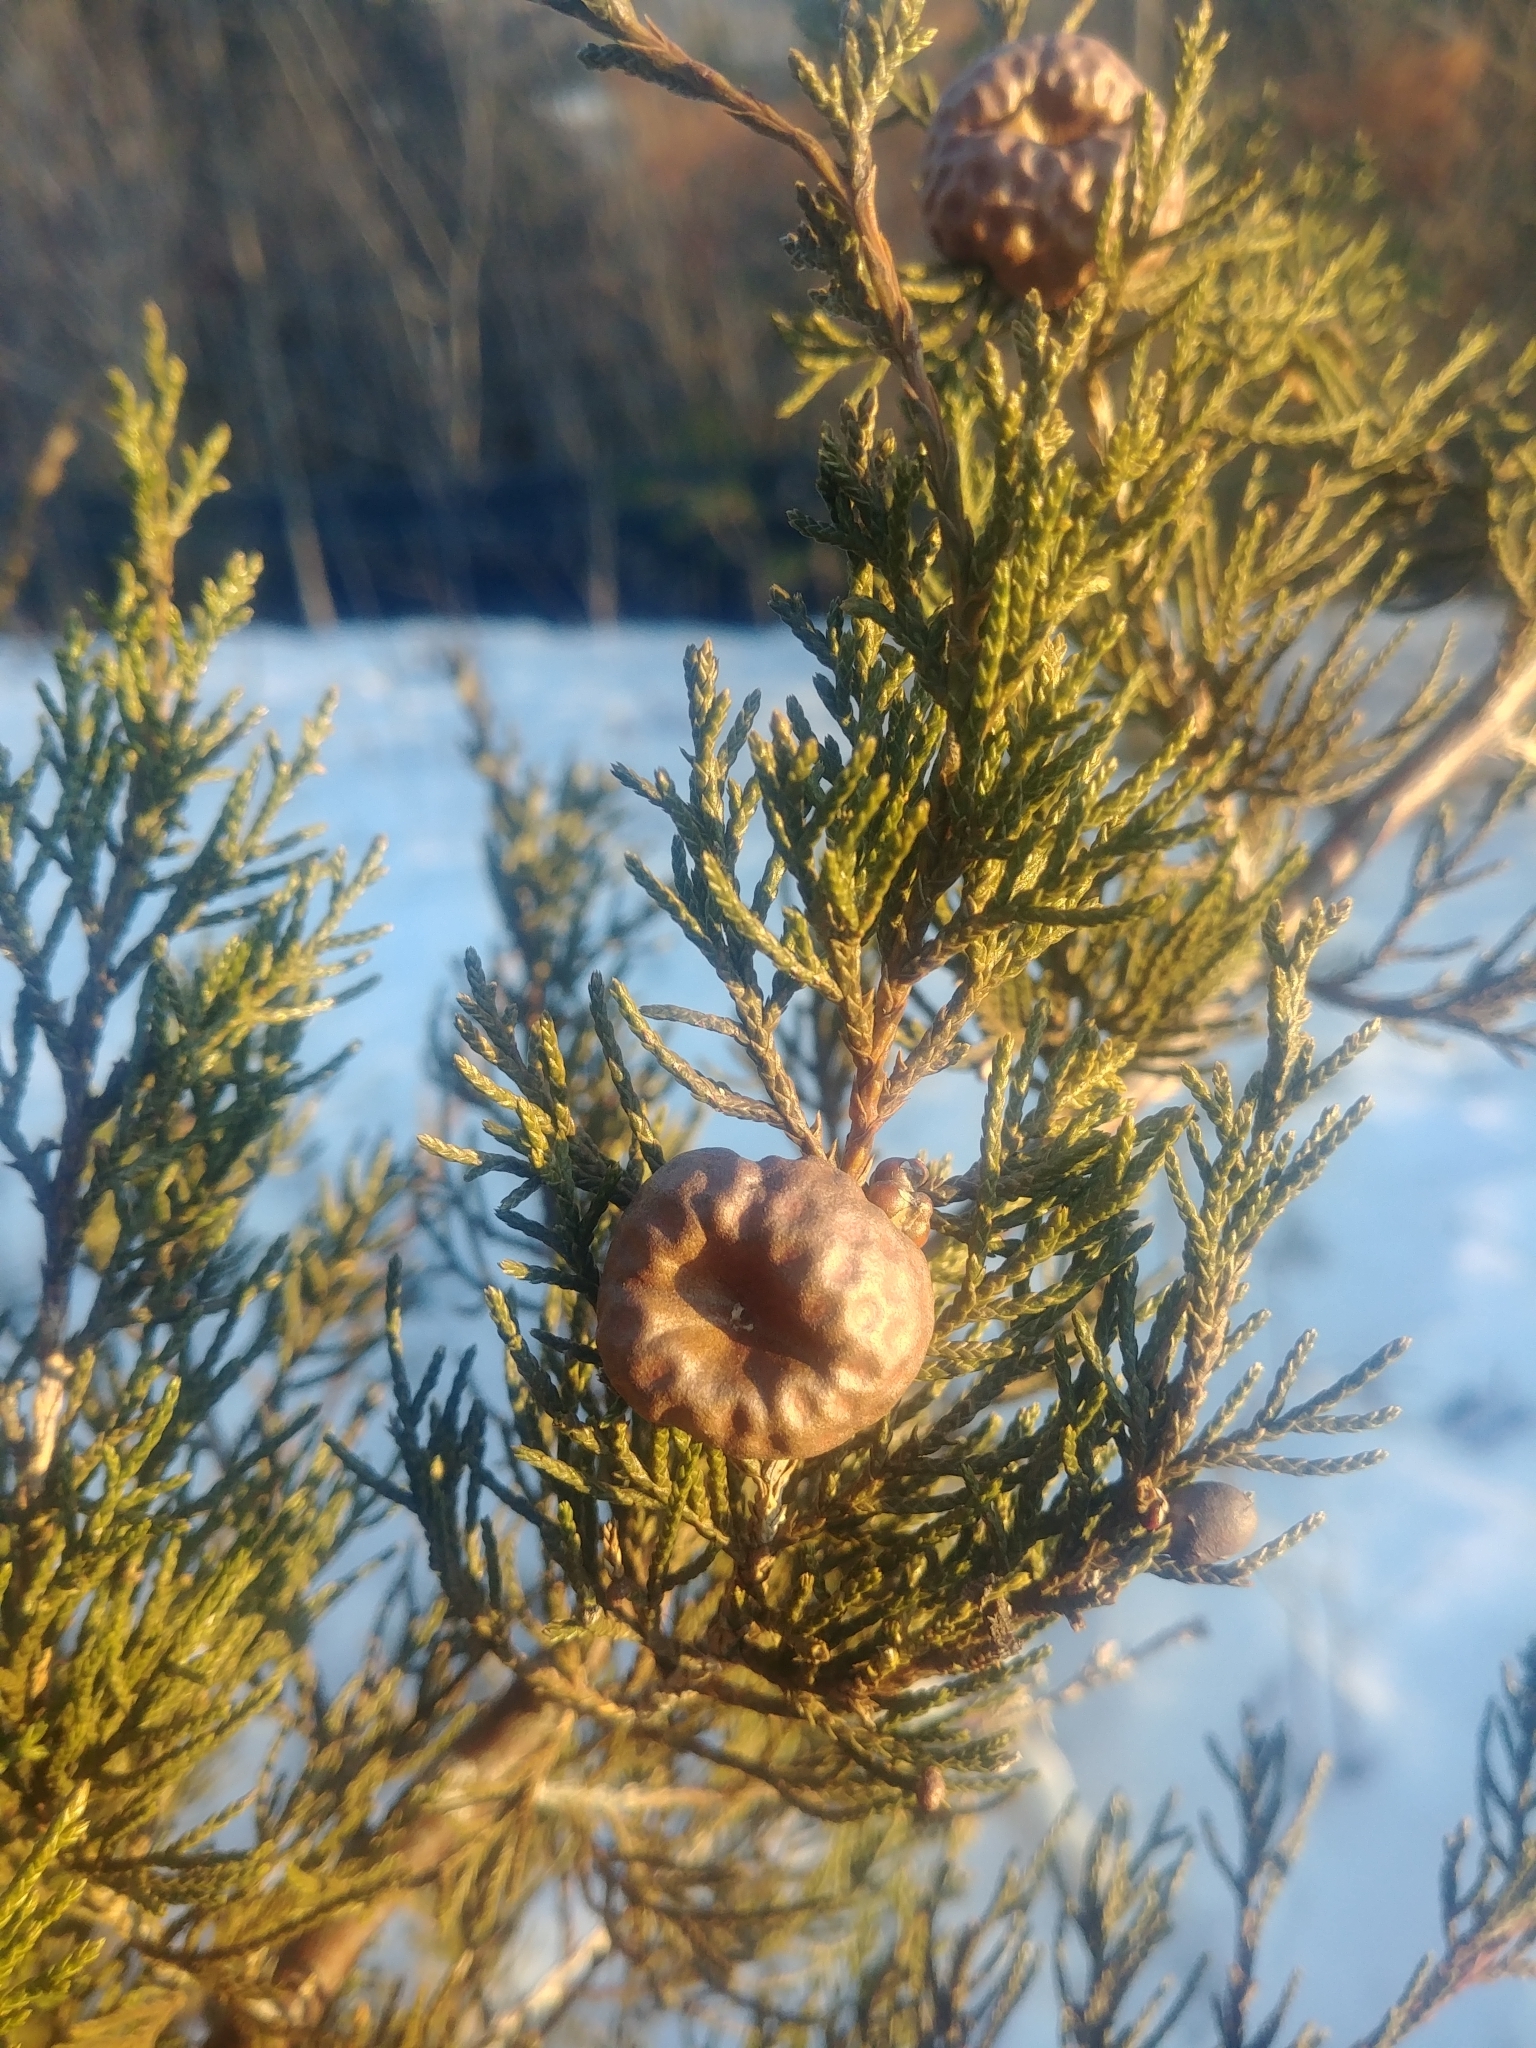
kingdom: Fungi
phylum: Basidiomycota
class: Pucciniomycetes
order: Pucciniales
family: Gymnosporangiaceae
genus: Gymnosporangium
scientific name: Gymnosporangium juniperi-virginianae
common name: Juniper-apple rust
